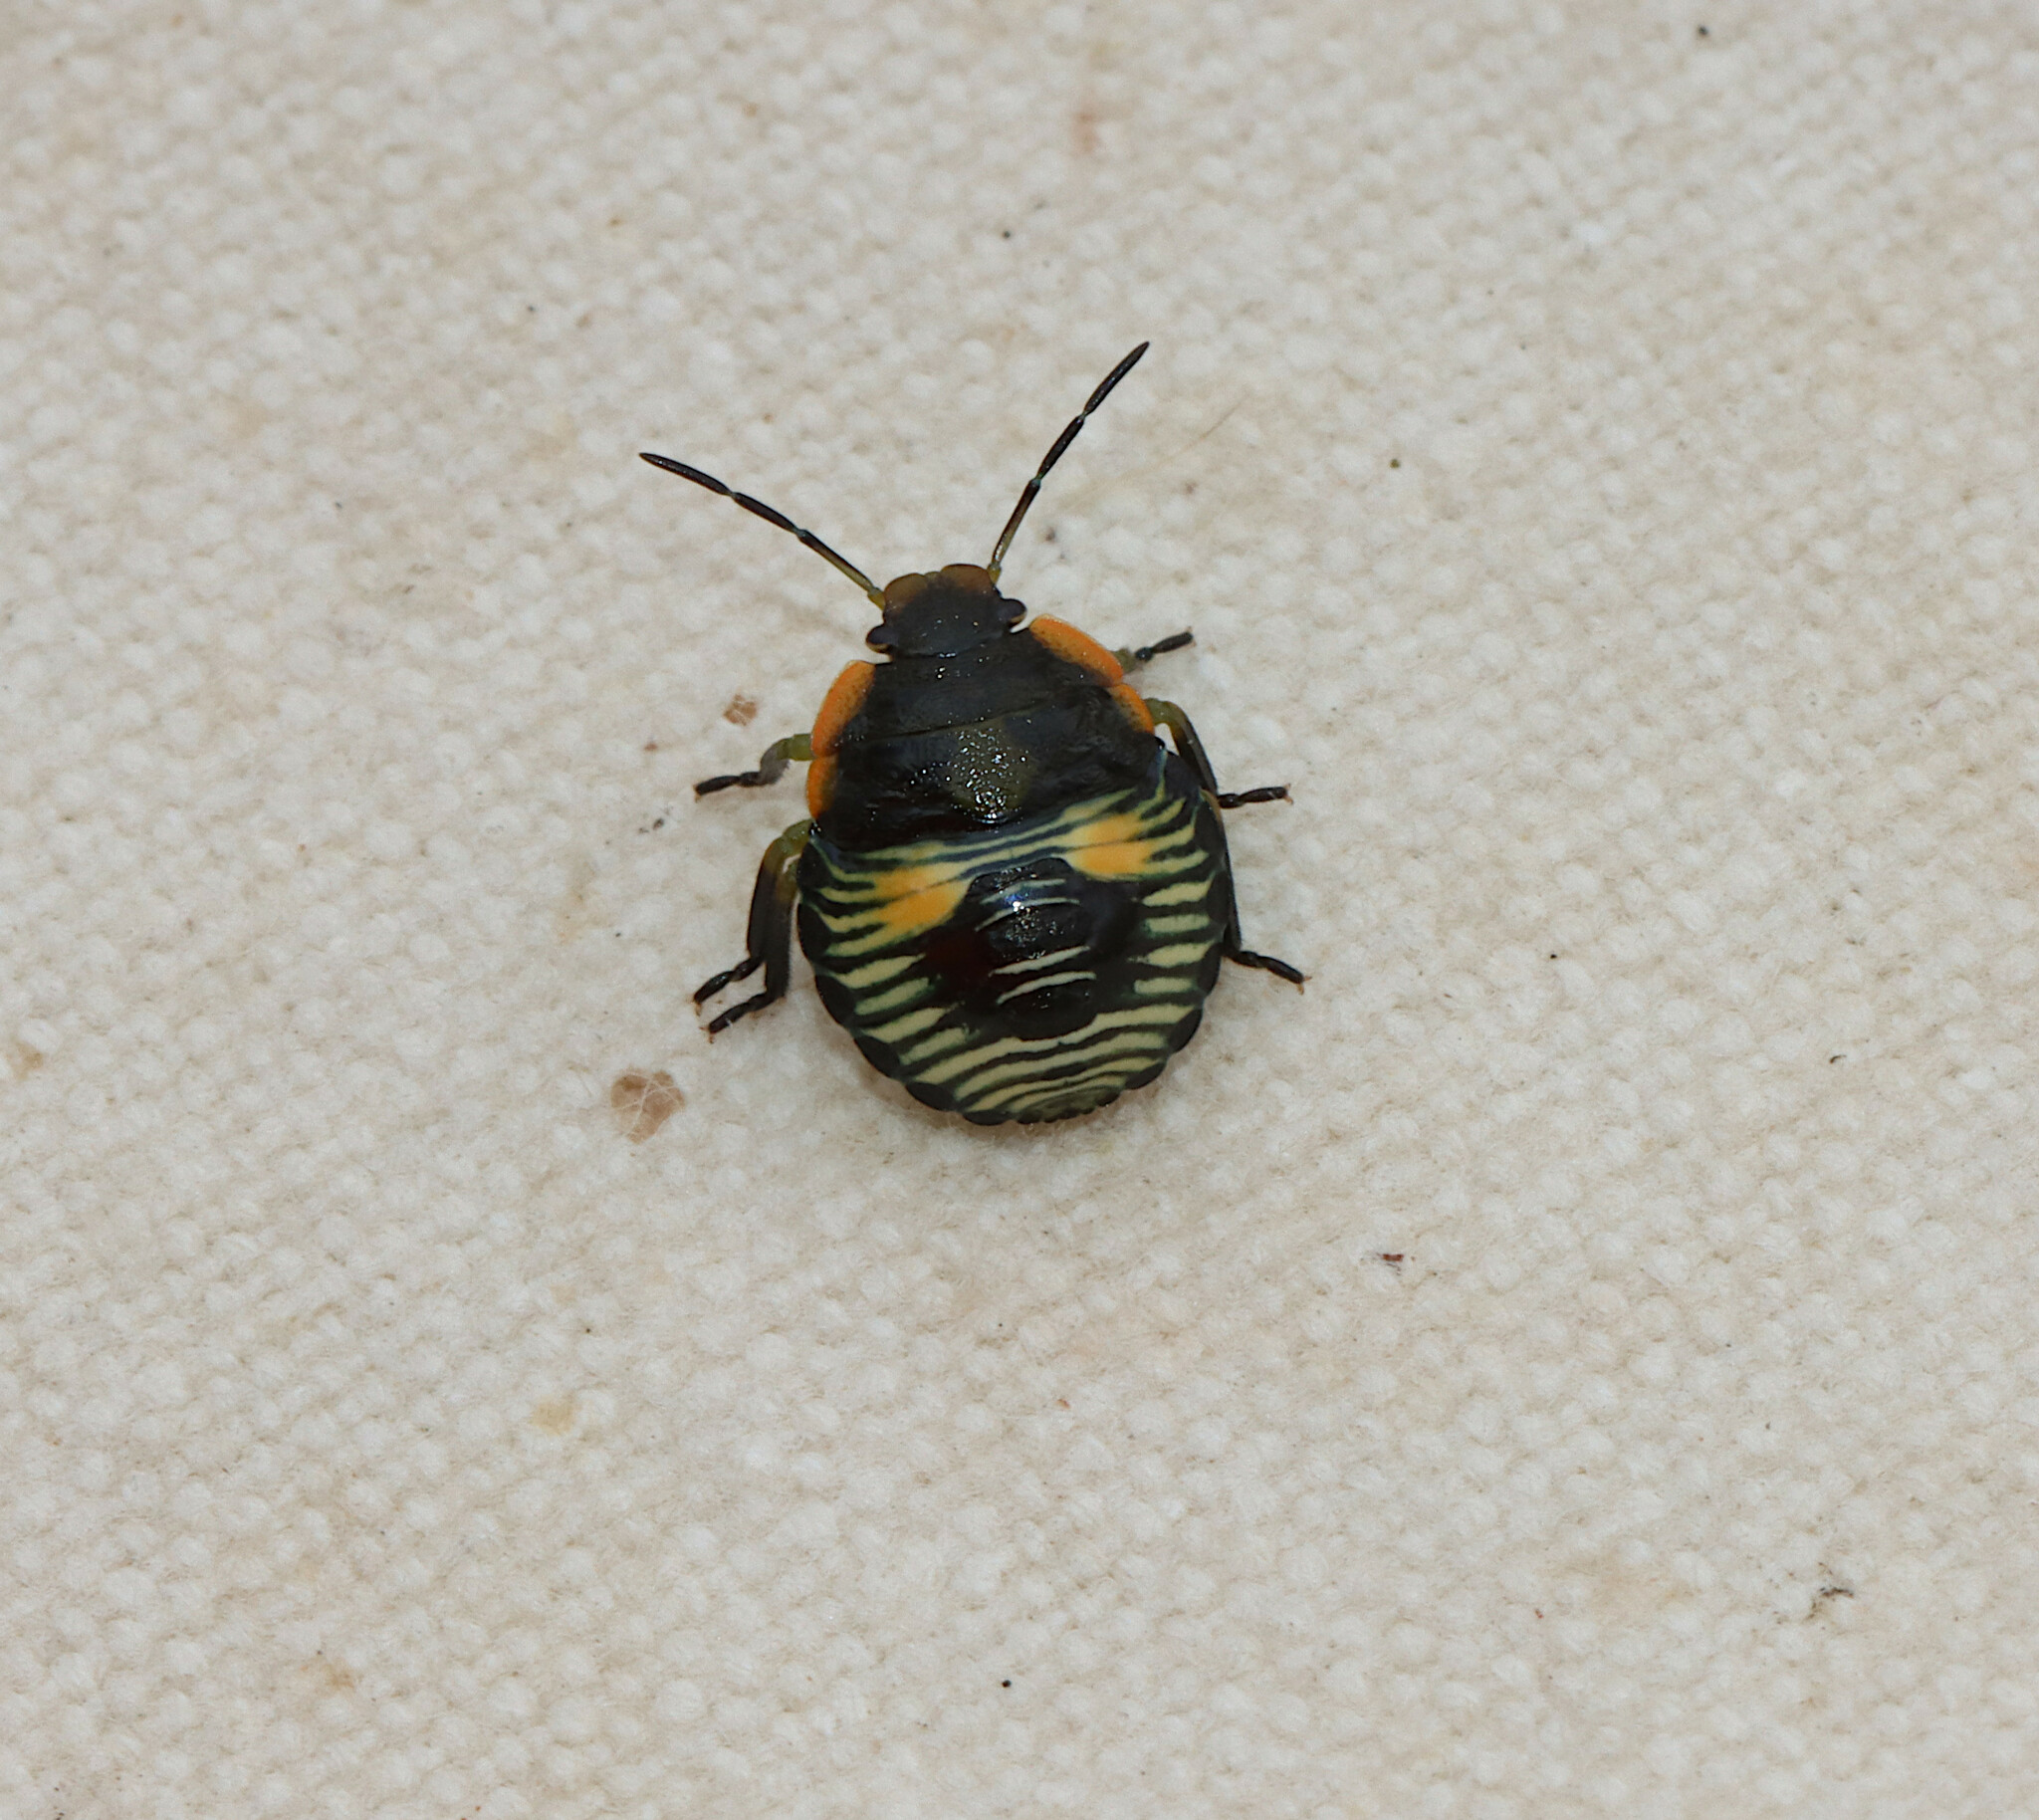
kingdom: Animalia
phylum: Arthropoda
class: Insecta
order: Hemiptera
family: Pentatomidae
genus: Chinavia
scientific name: Chinavia hilaris
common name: Green stink bug
